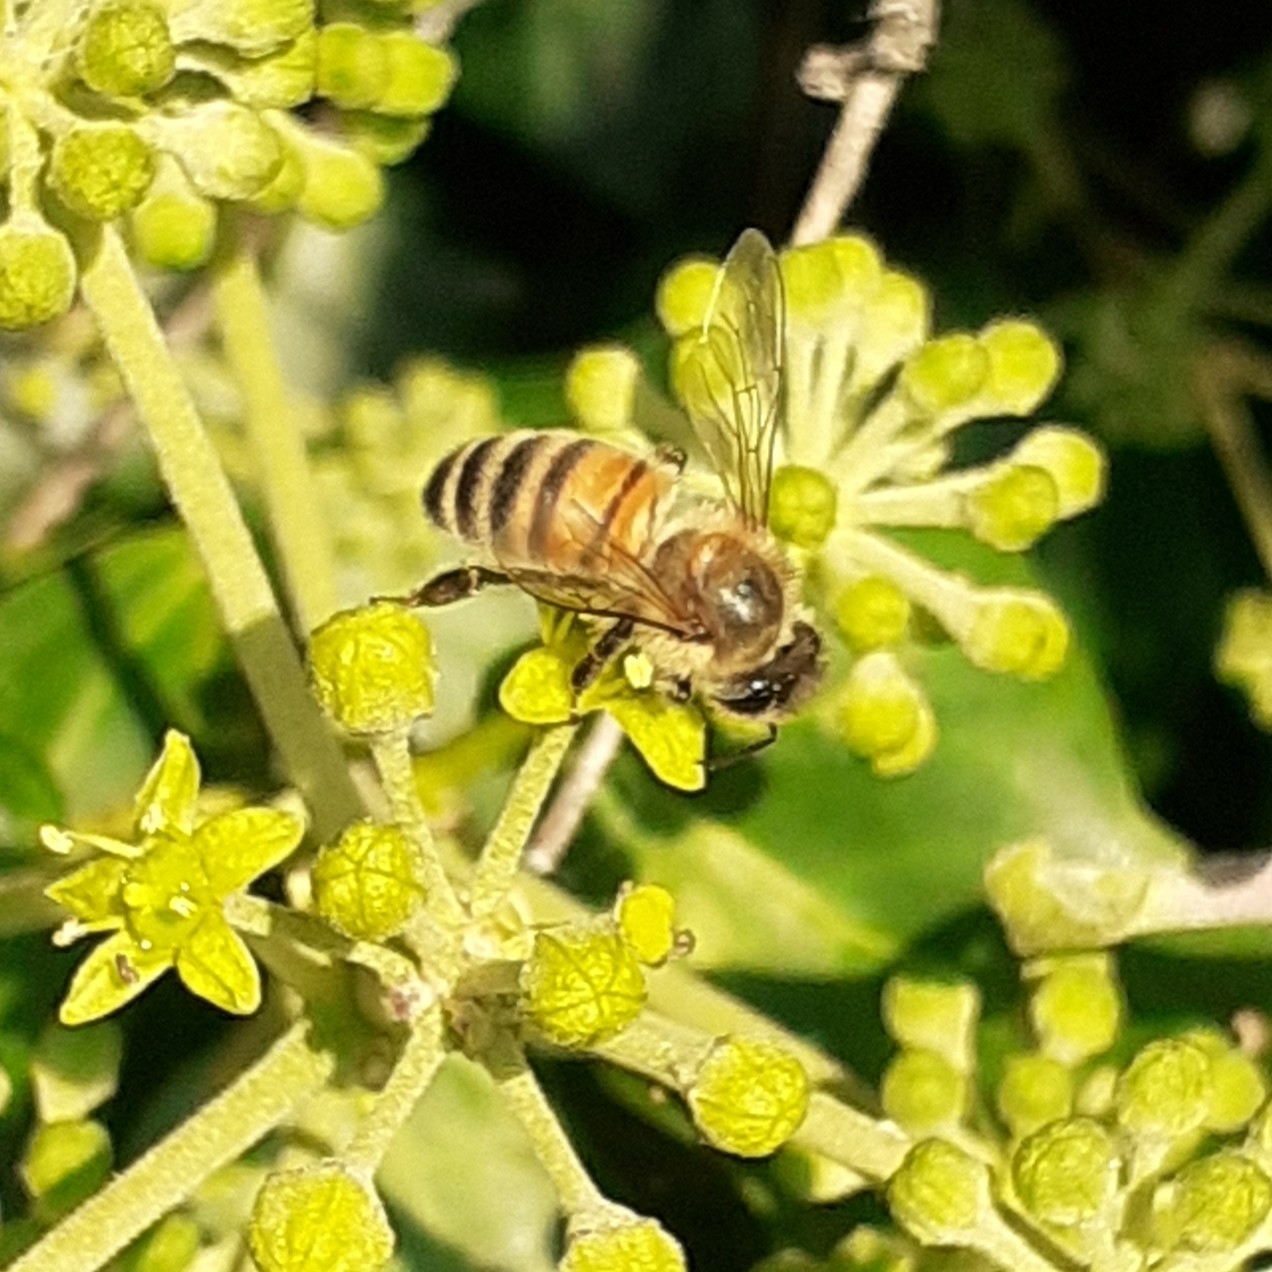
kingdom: Animalia
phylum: Arthropoda
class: Insecta
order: Hymenoptera
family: Apidae
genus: Apis
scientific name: Apis mellifera
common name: Honey bee
